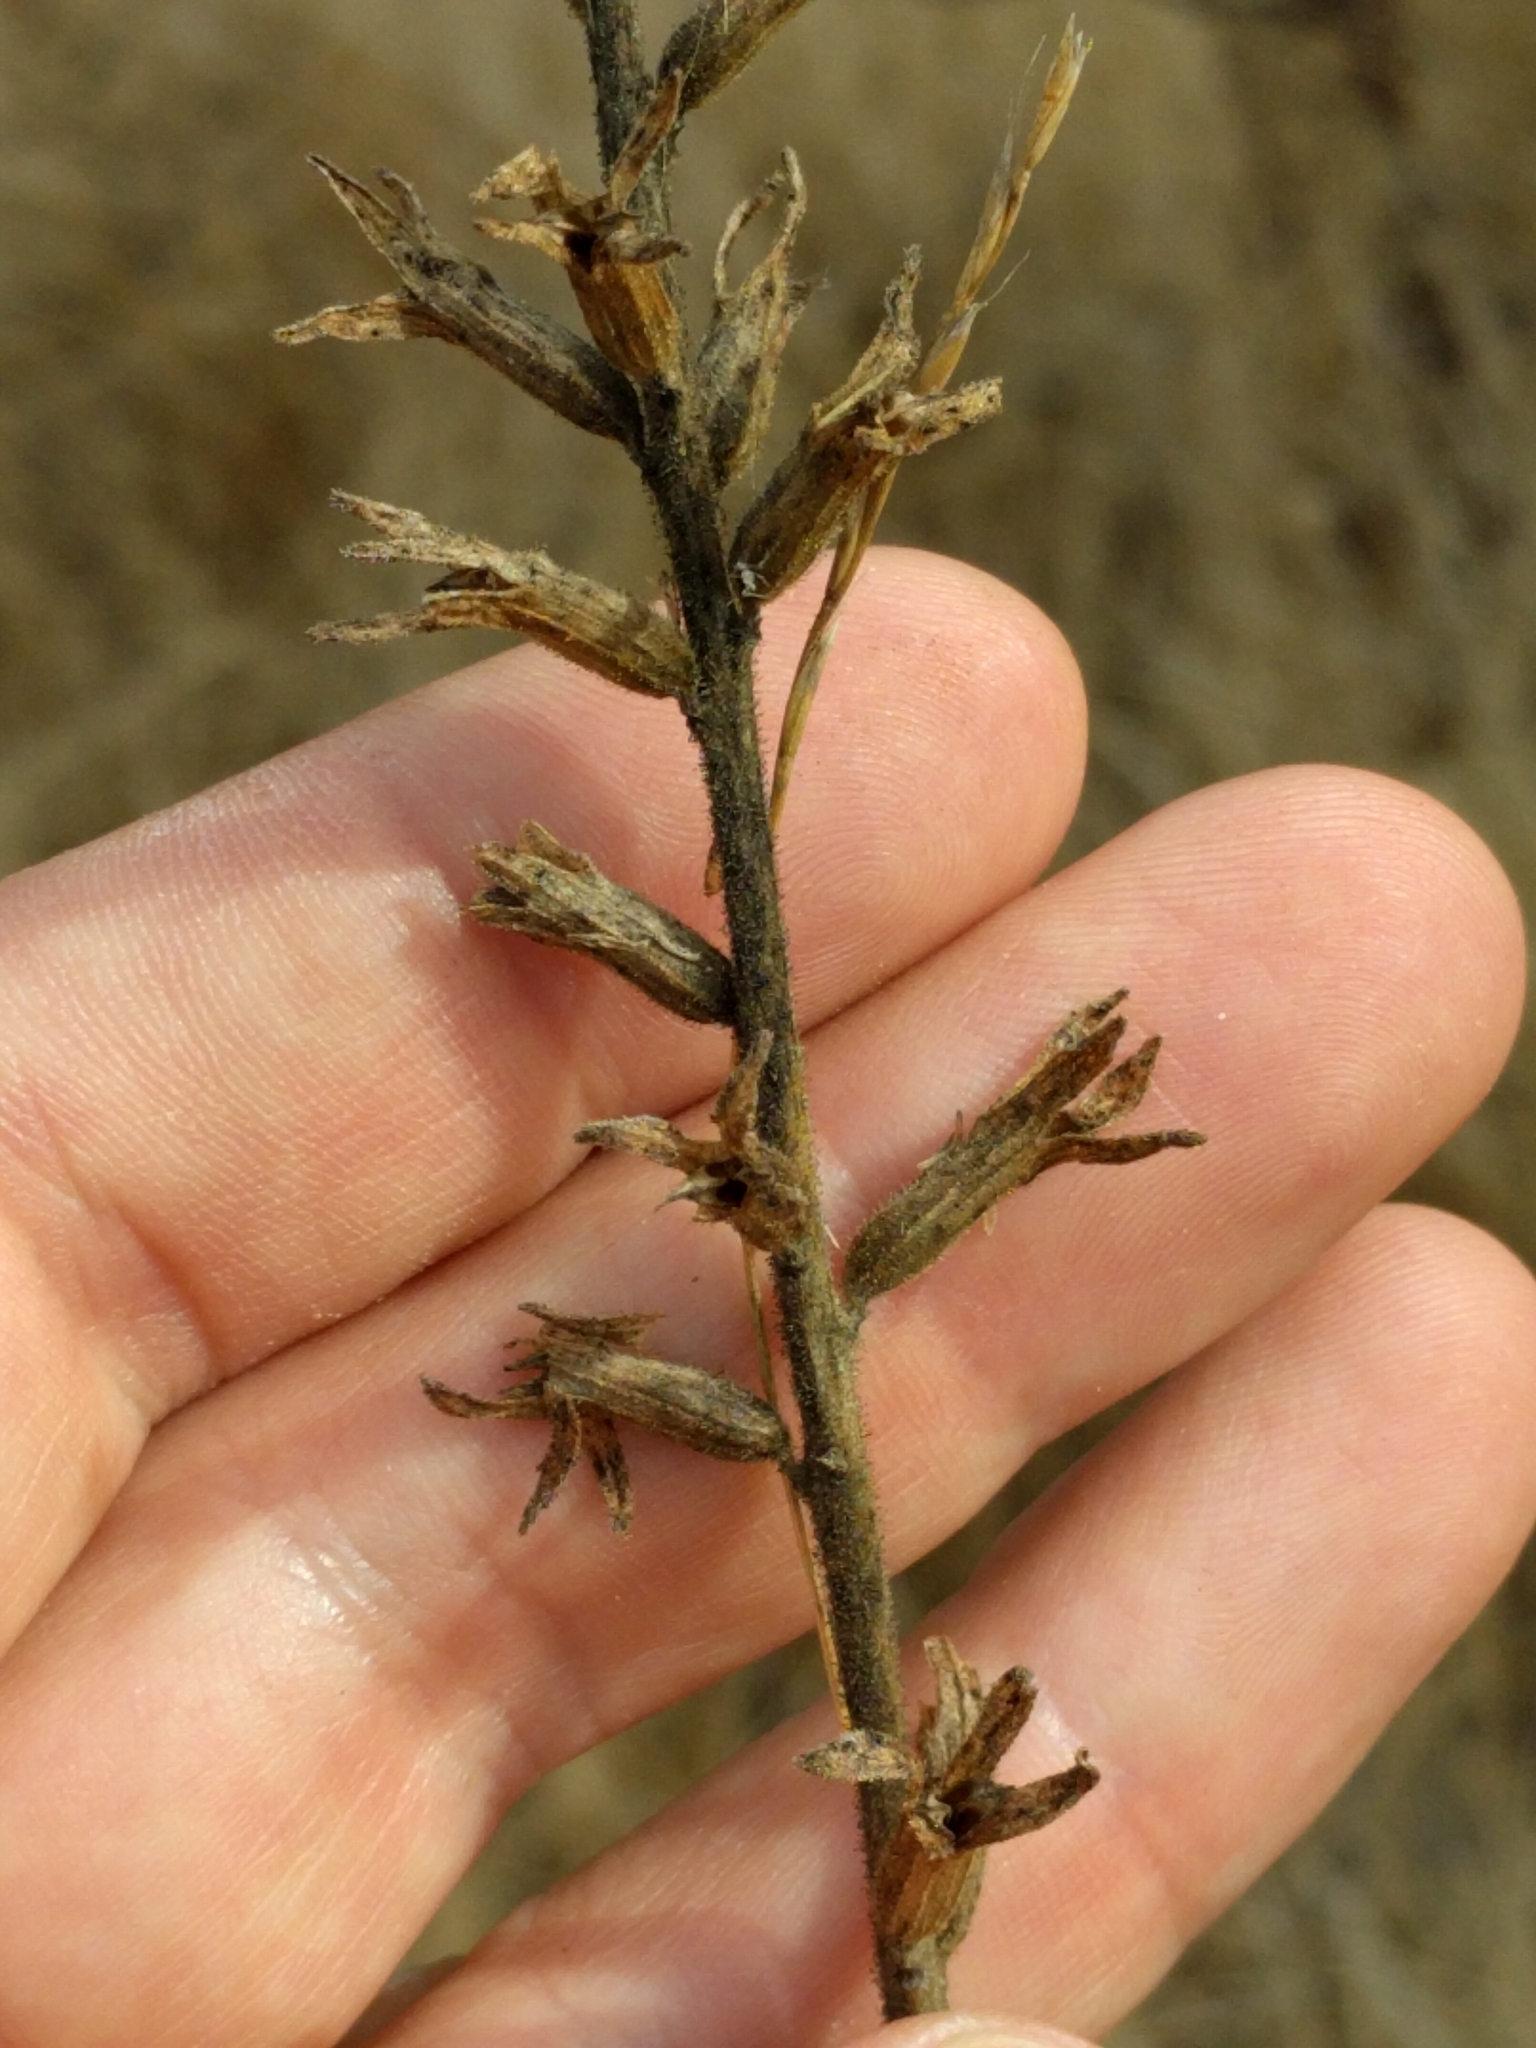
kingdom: Plantae
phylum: Tracheophyta
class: Magnoliopsida
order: Lamiales
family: Orobanchaceae
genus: Bellardia
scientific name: Bellardia viscosa
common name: Sticky parentucellia
